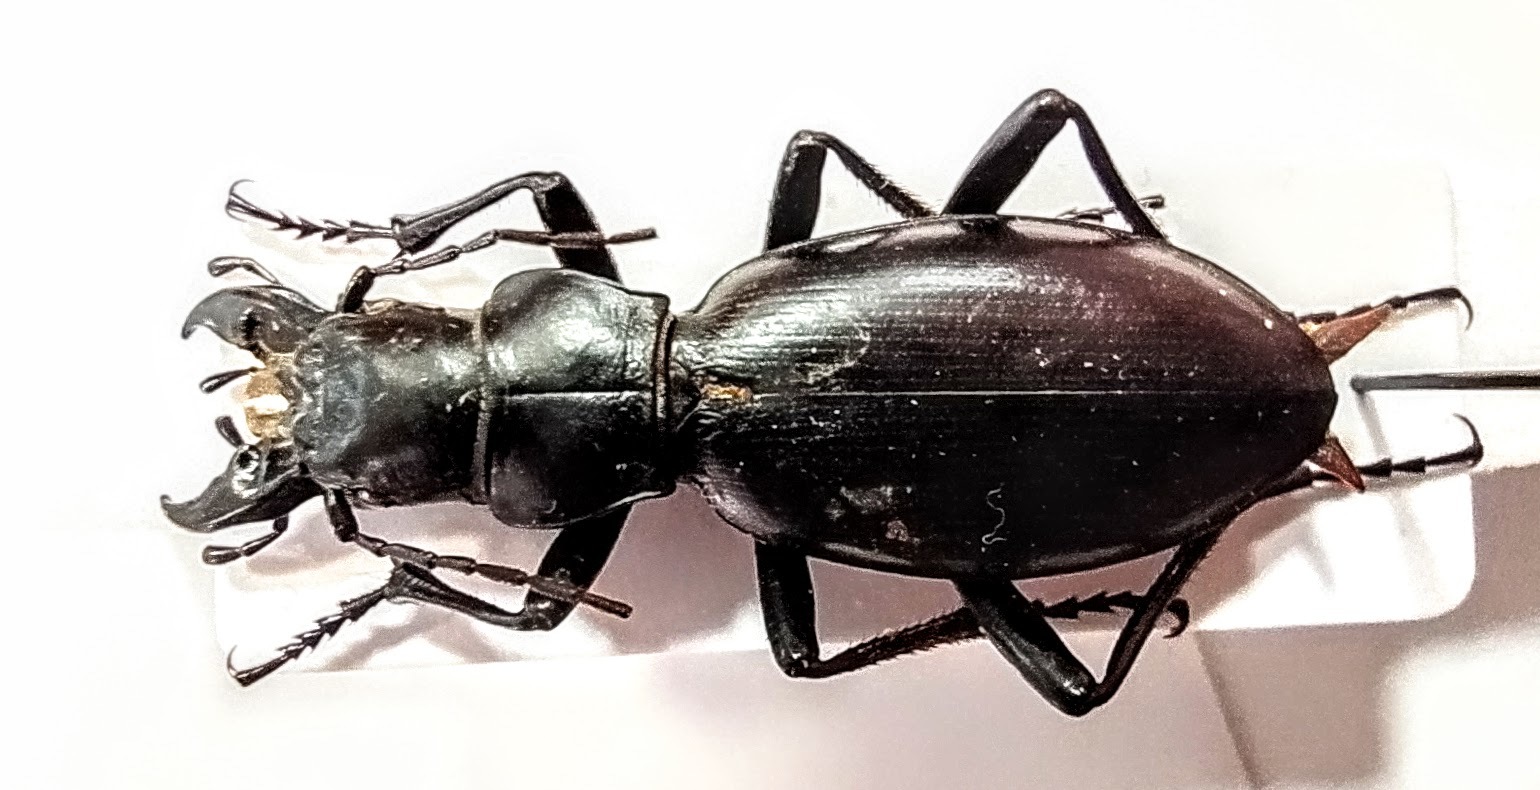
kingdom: Animalia
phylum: Arthropoda
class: Insecta
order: Coleoptera
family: Carabidae
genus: Carabus
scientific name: Carabus turcomanorum
